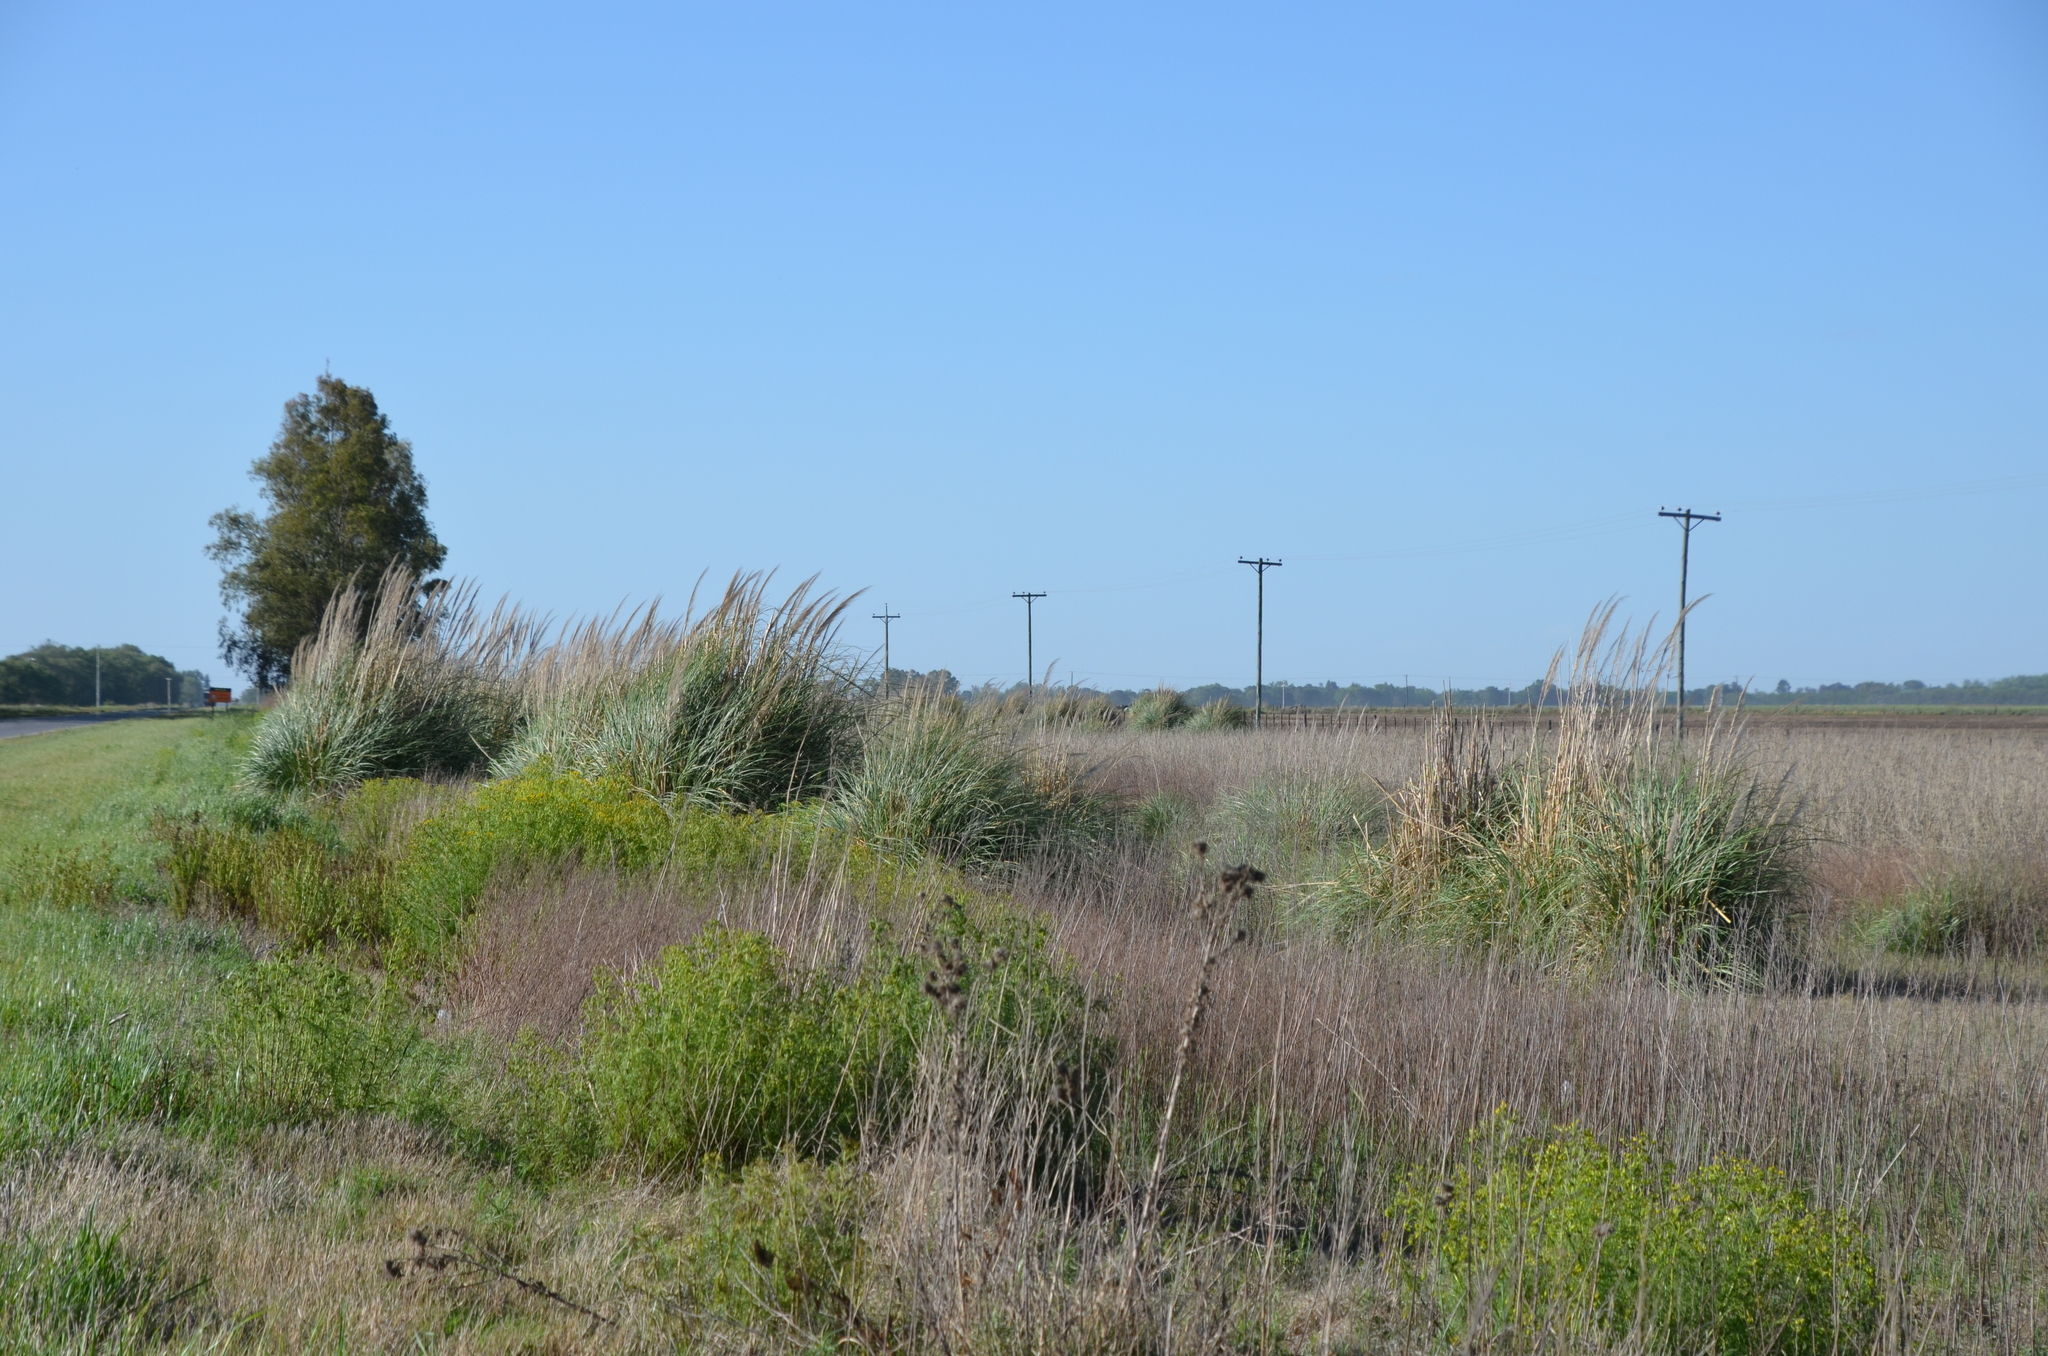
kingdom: Plantae
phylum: Tracheophyta
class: Liliopsida
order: Poales
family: Poaceae
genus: Cortaderia
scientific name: Cortaderia selloana
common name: Uruguayan pampas grass
